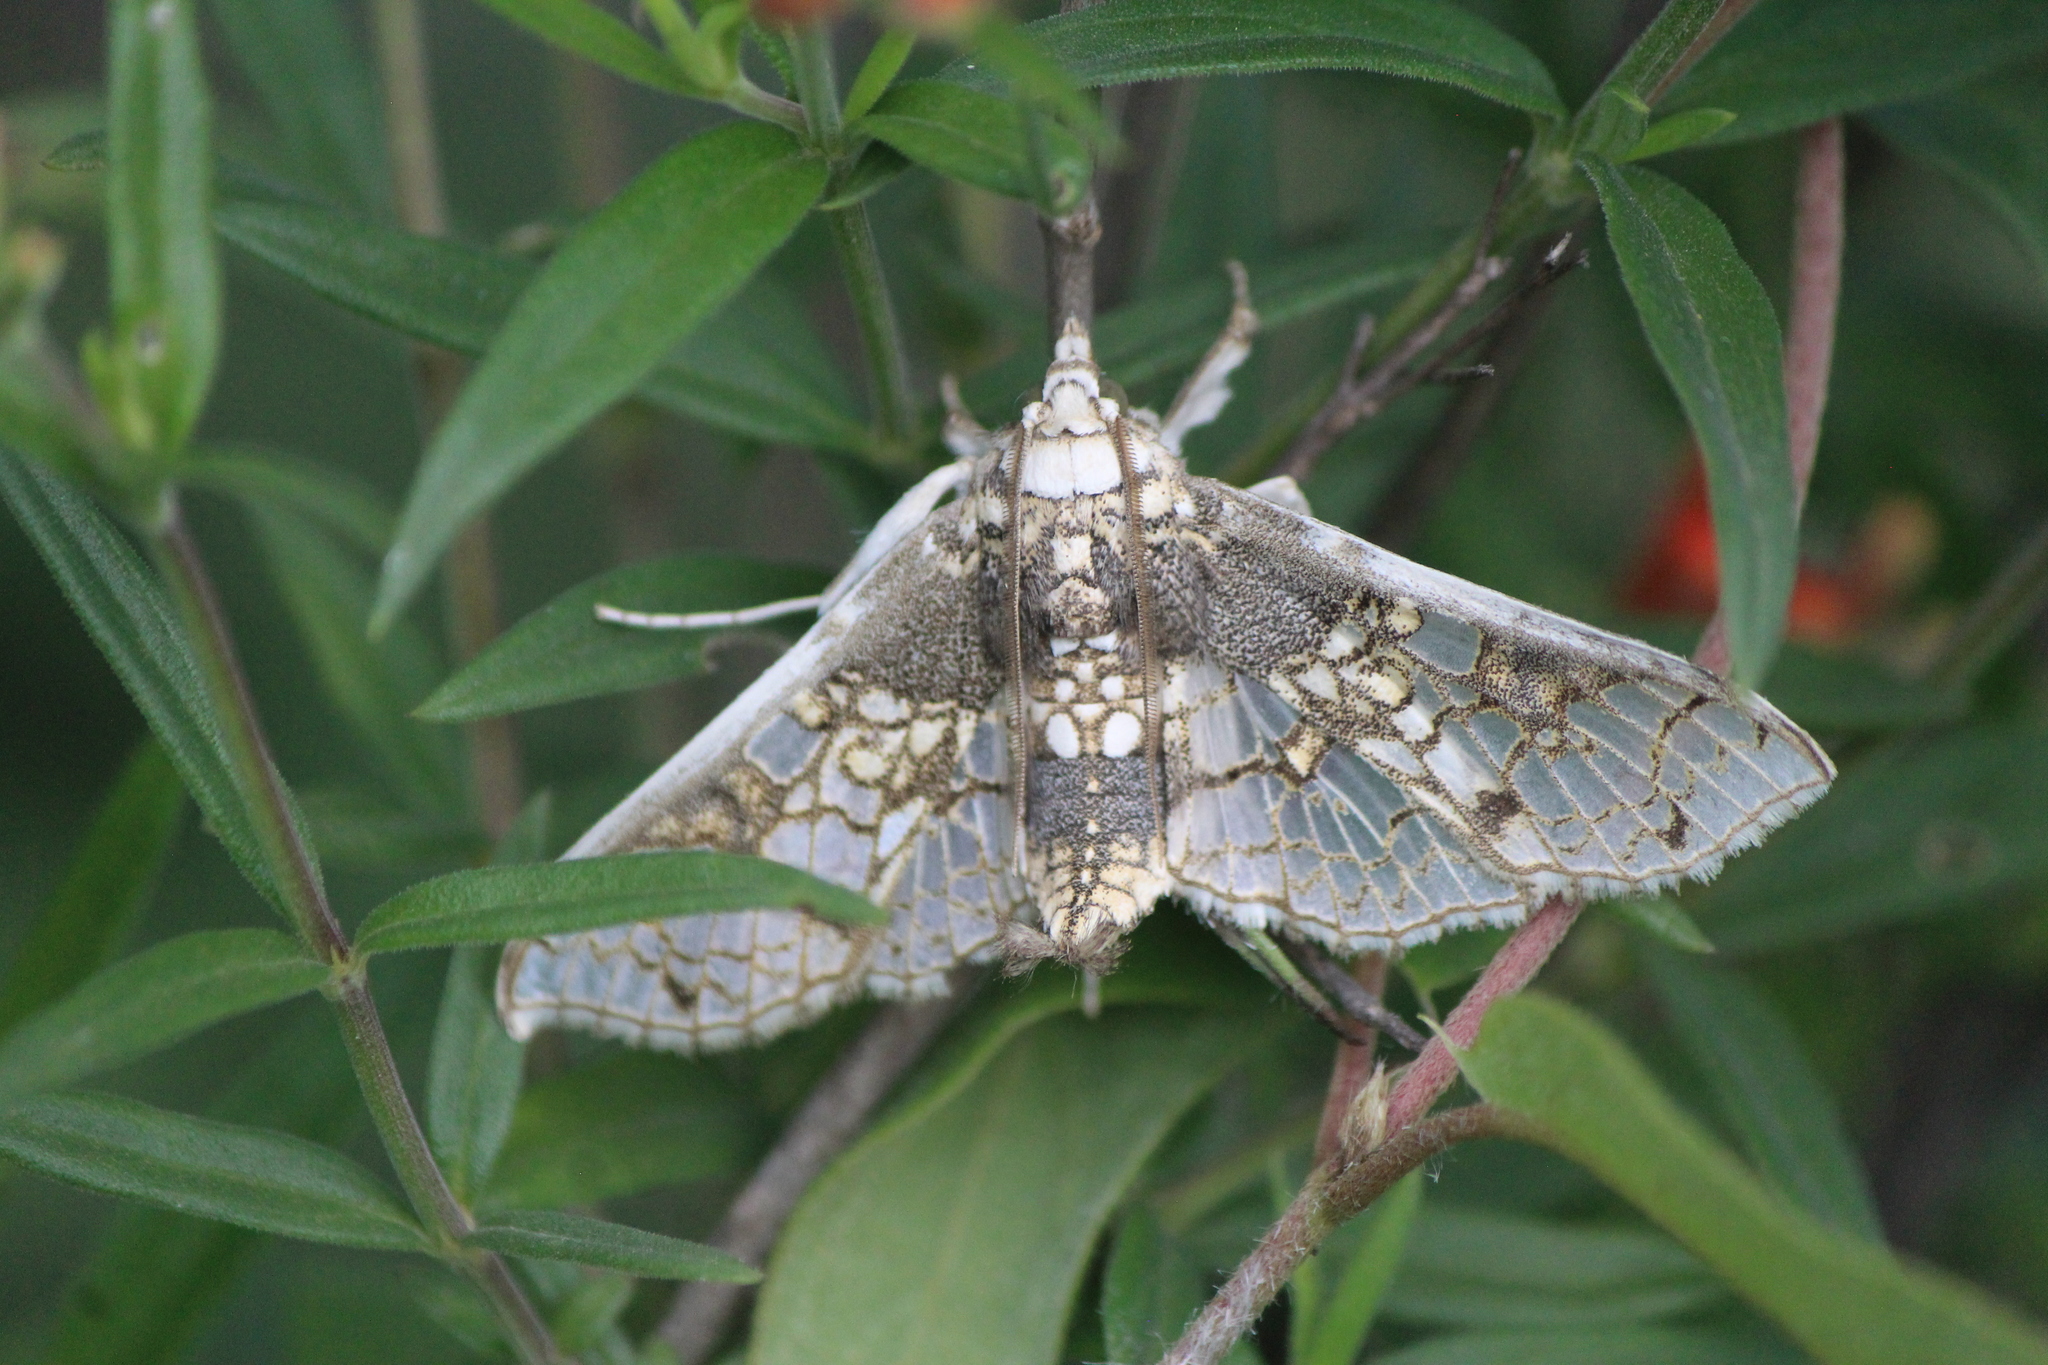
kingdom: Animalia
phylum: Arthropoda
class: Insecta
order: Lepidoptera
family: Crambidae
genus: Megastes
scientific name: Megastes praxiteles
